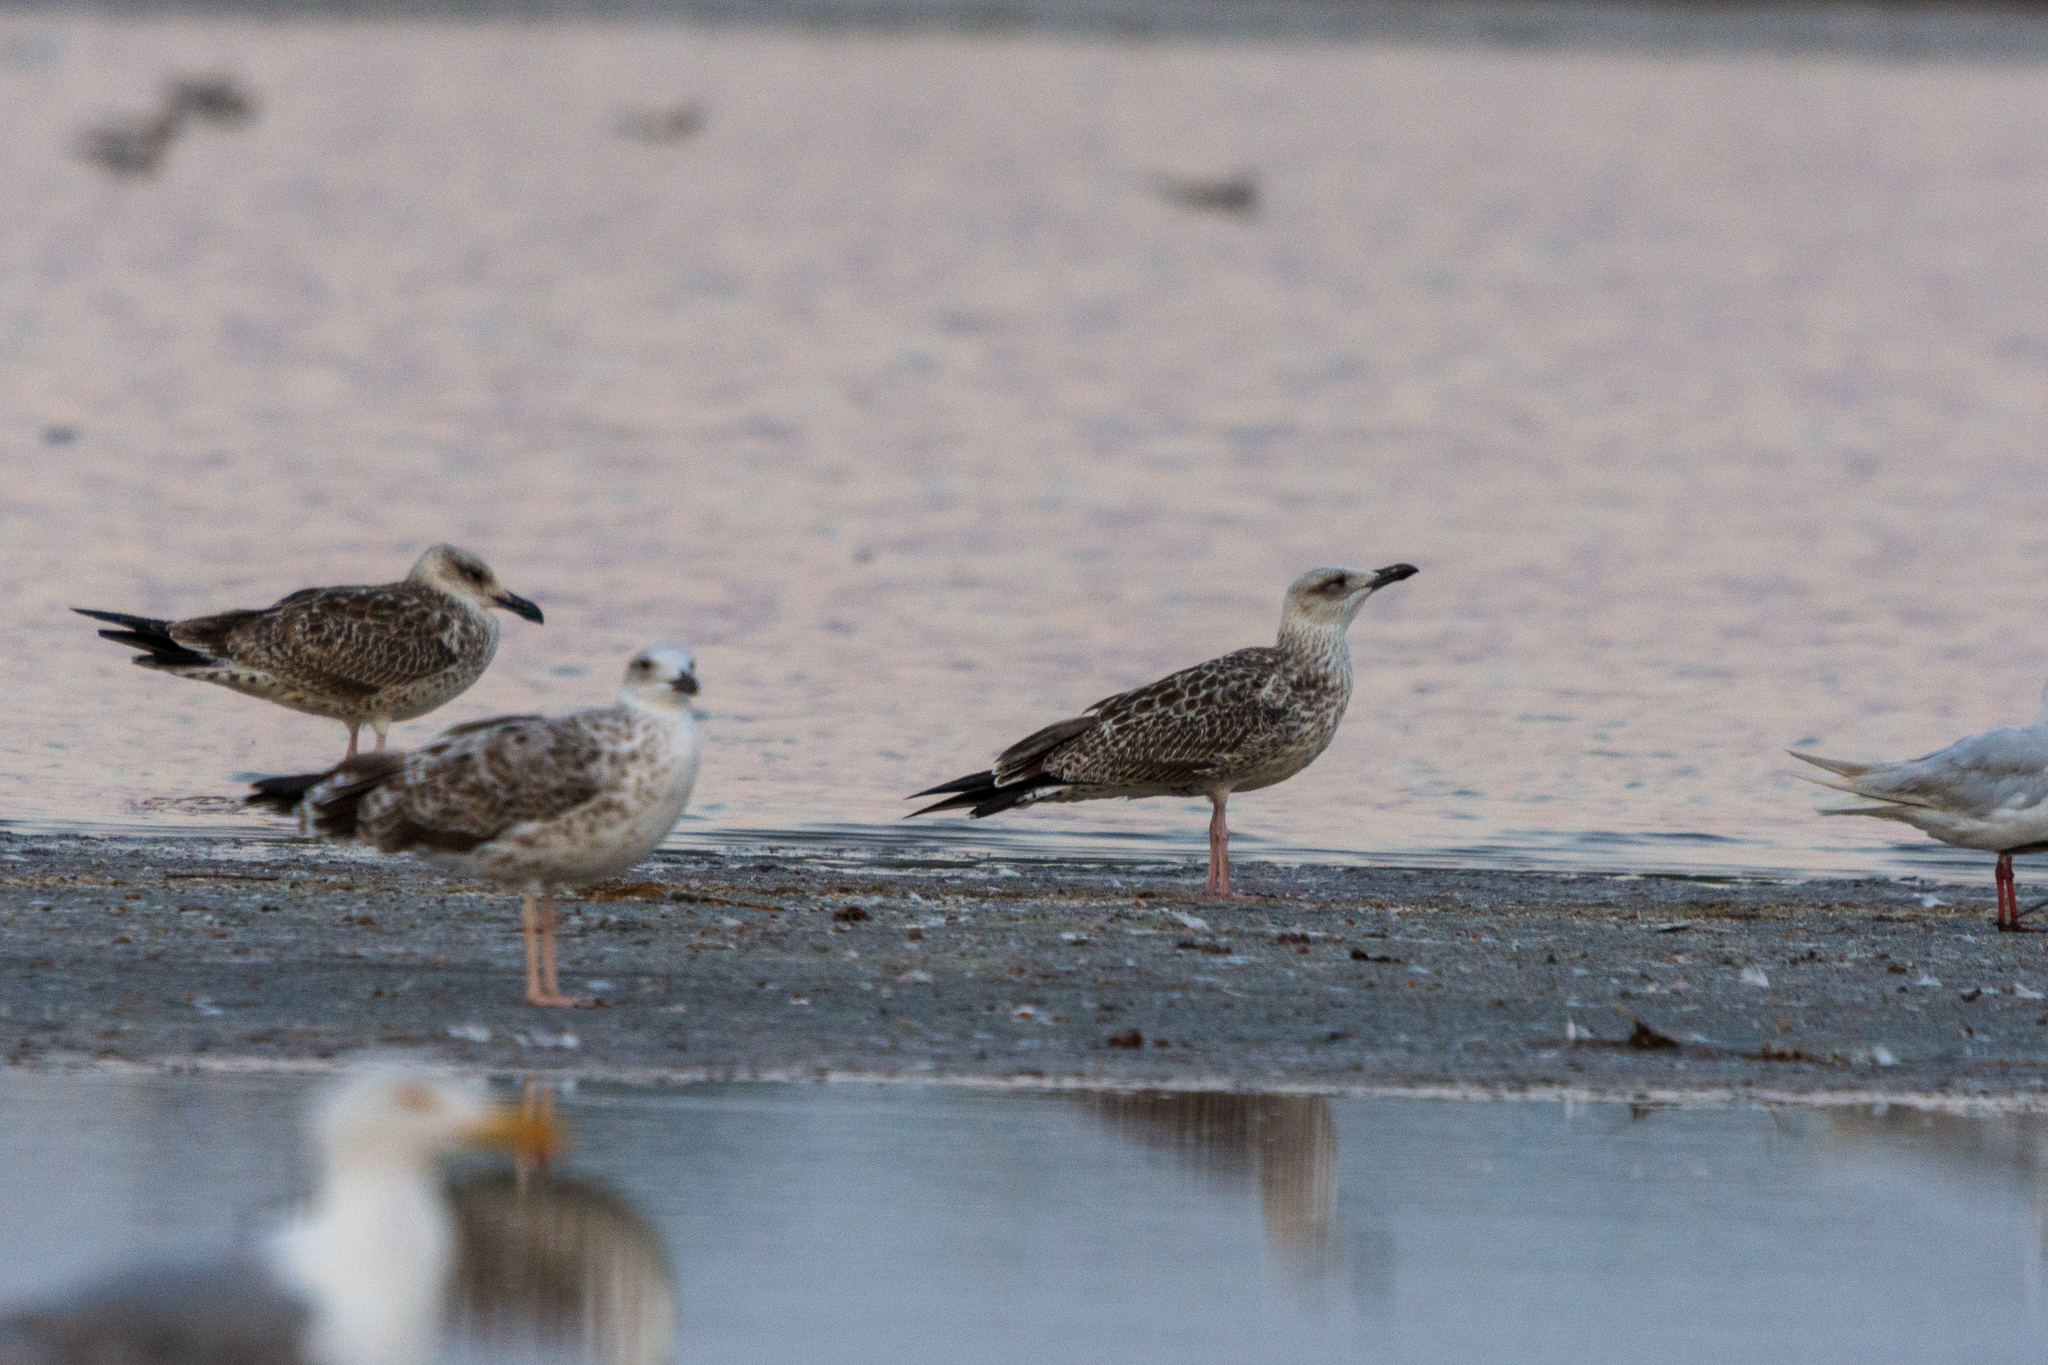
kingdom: Animalia
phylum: Chordata
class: Aves
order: Charadriiformes
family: Laridae
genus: Larus
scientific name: Larus michahellis
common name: Yellow-legged gull
